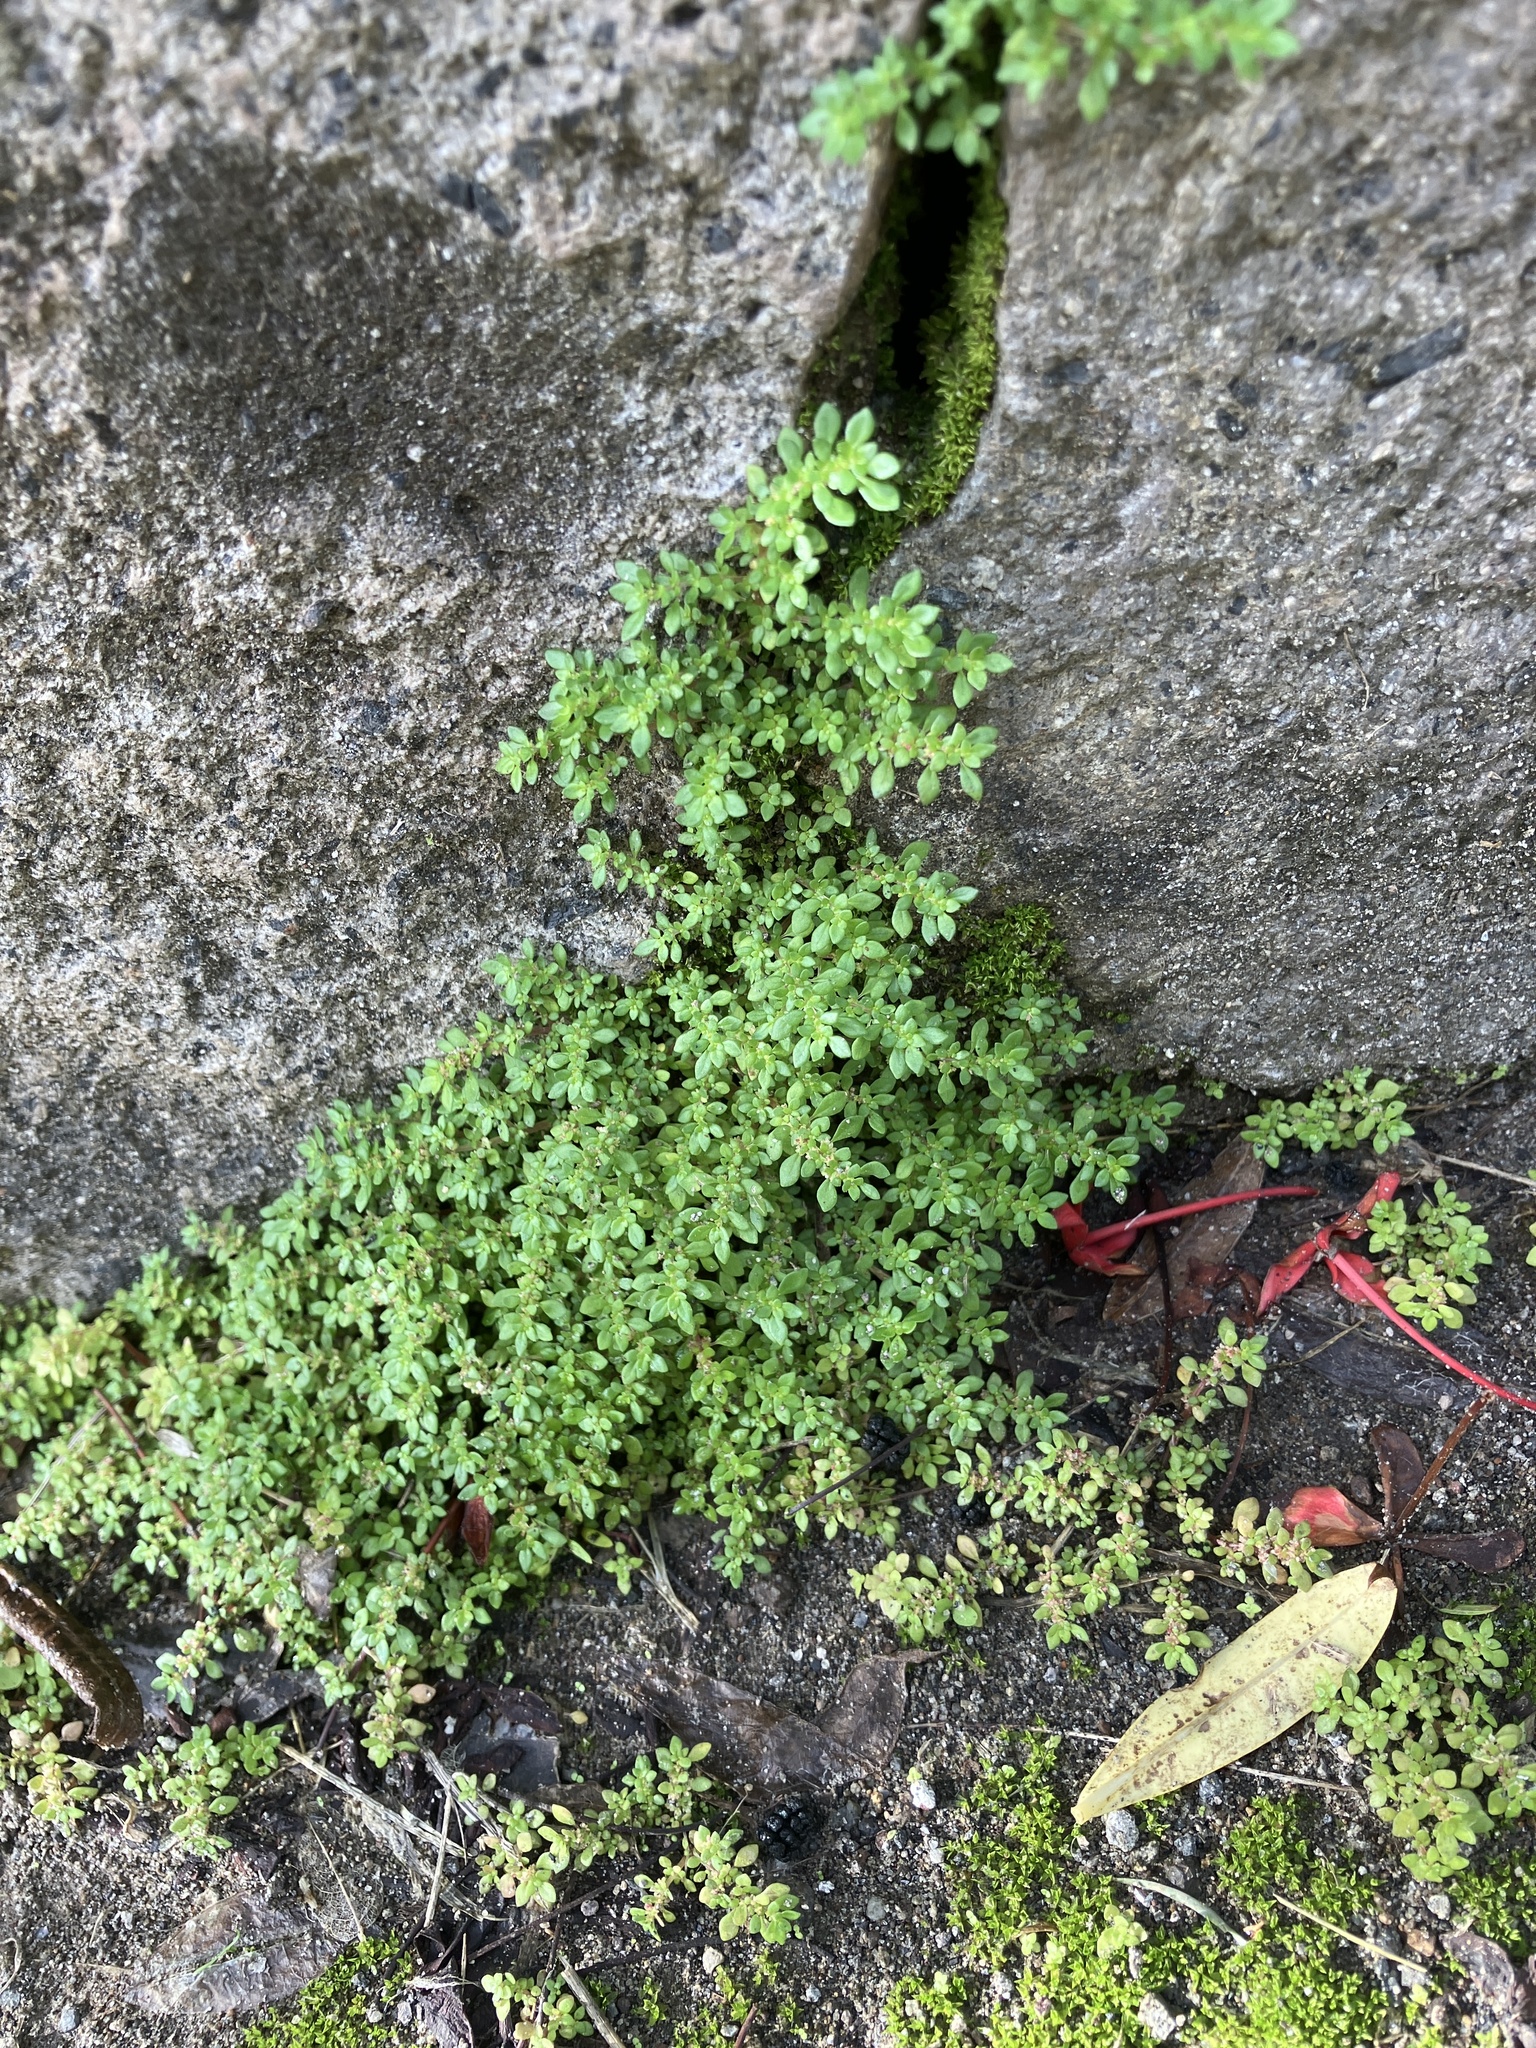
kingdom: Plantae
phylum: Tracheophyta
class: Magnoliopsida
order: Rosales
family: Urticaceae
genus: Pilea
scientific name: Pilea microphylla
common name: Artillery-plant
